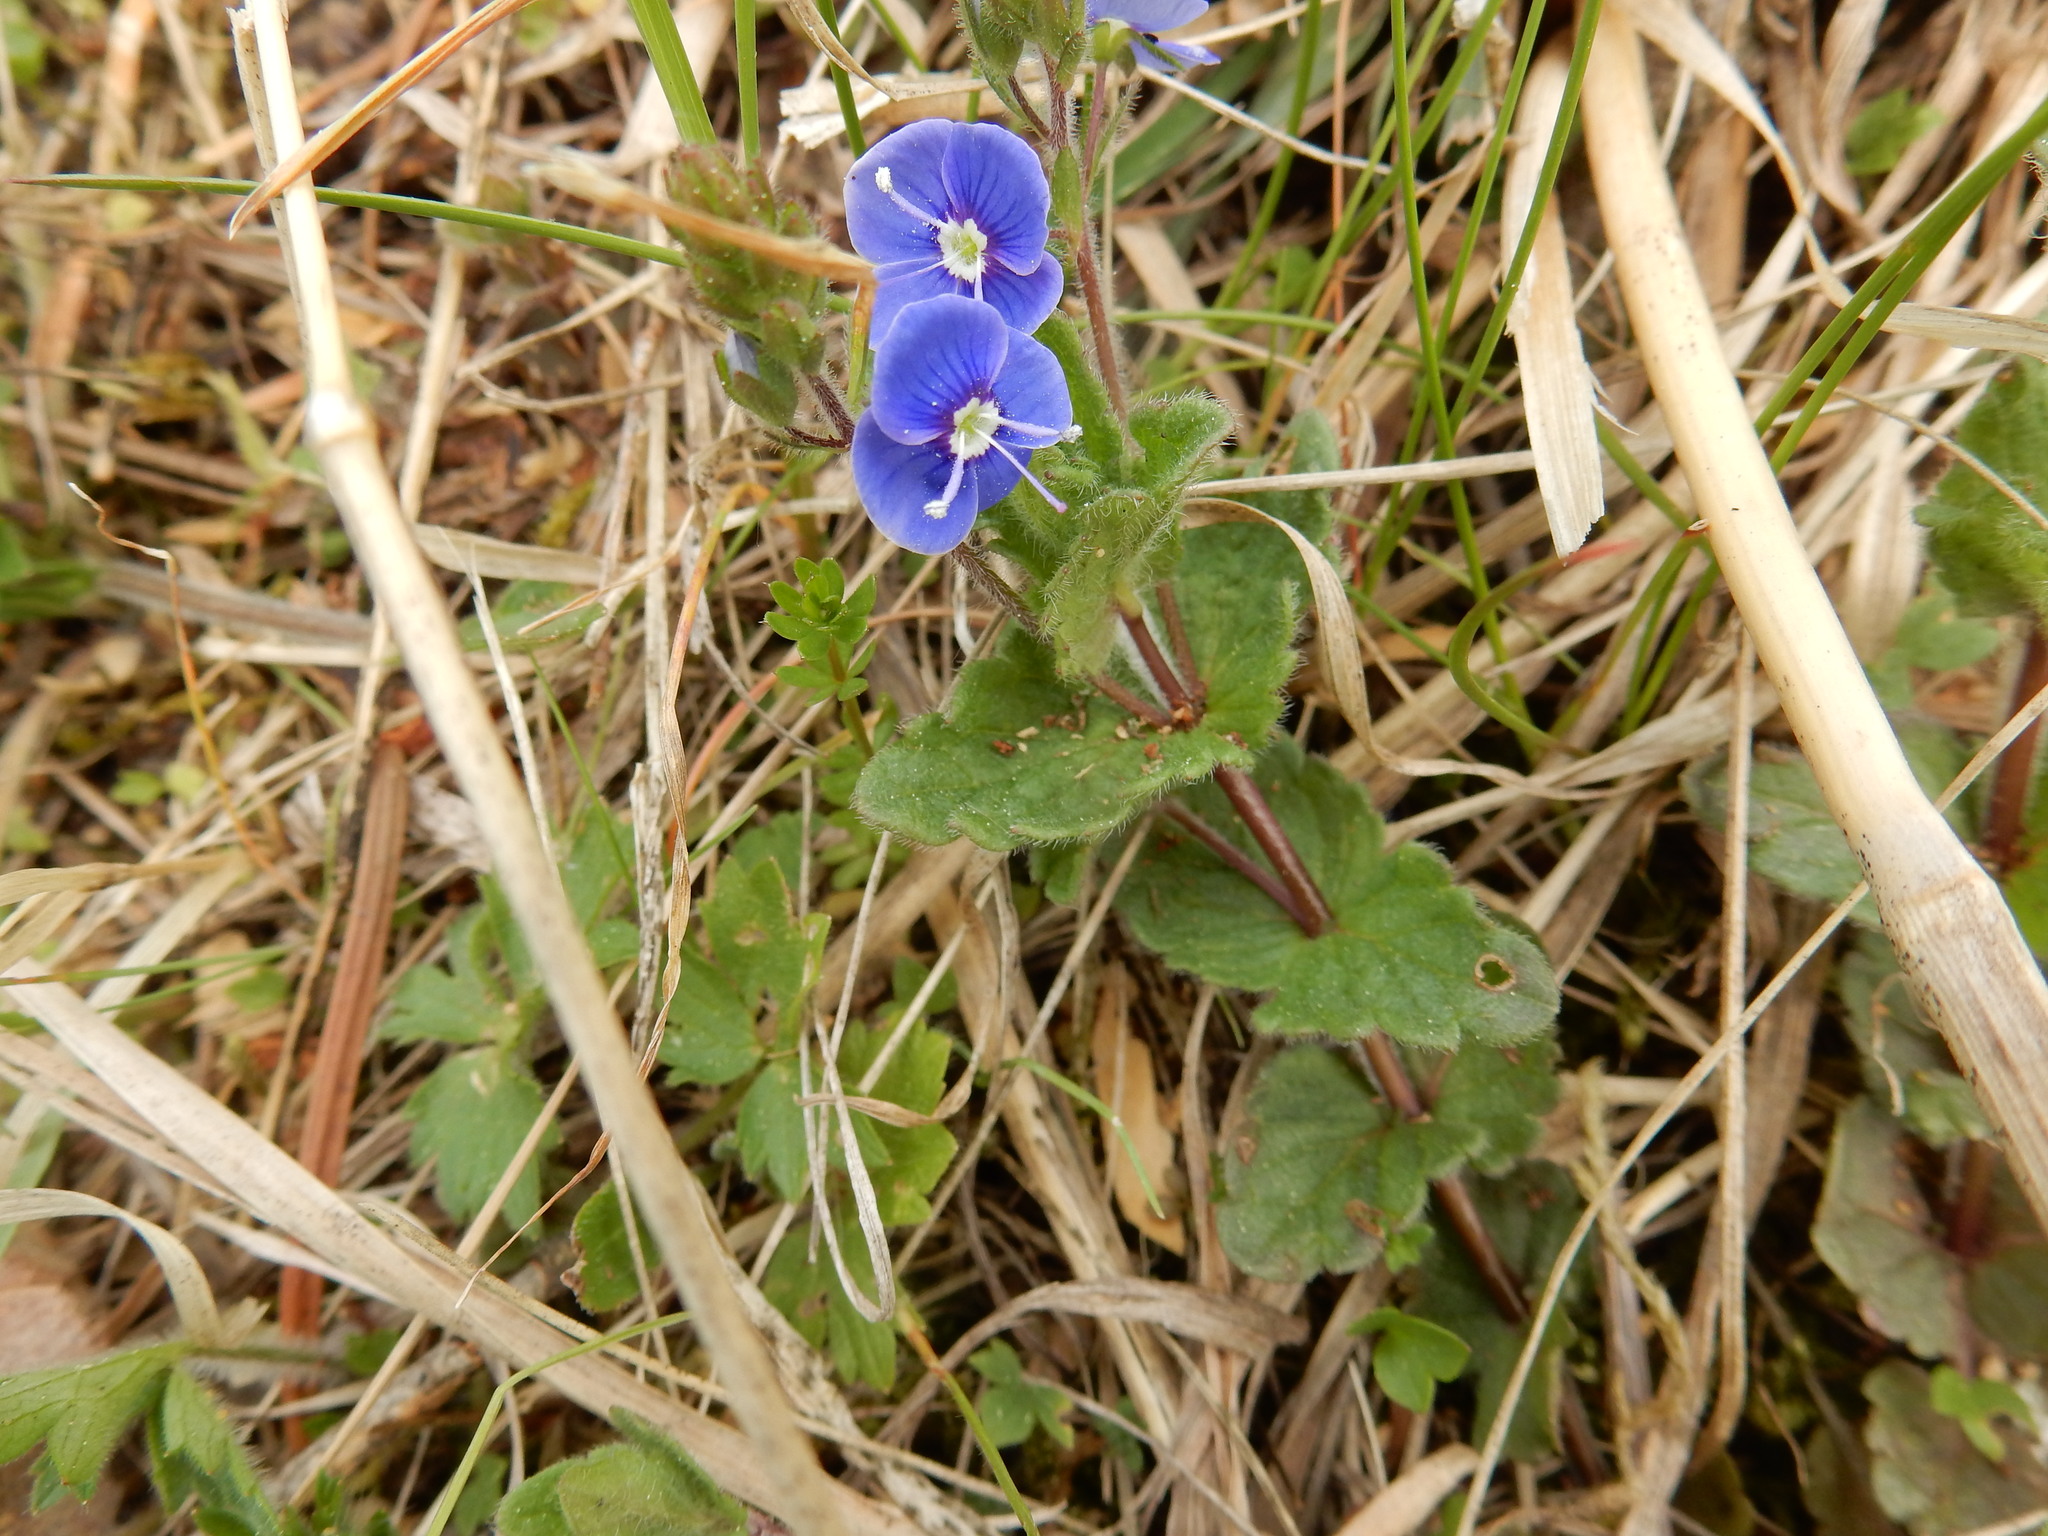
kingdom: Plantae
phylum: Tracheophyta
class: Magnoliopsida
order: Lamiales
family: Plantaginaceae
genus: Veronica
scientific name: Veronica chamaedrys
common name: Germander speedwell
